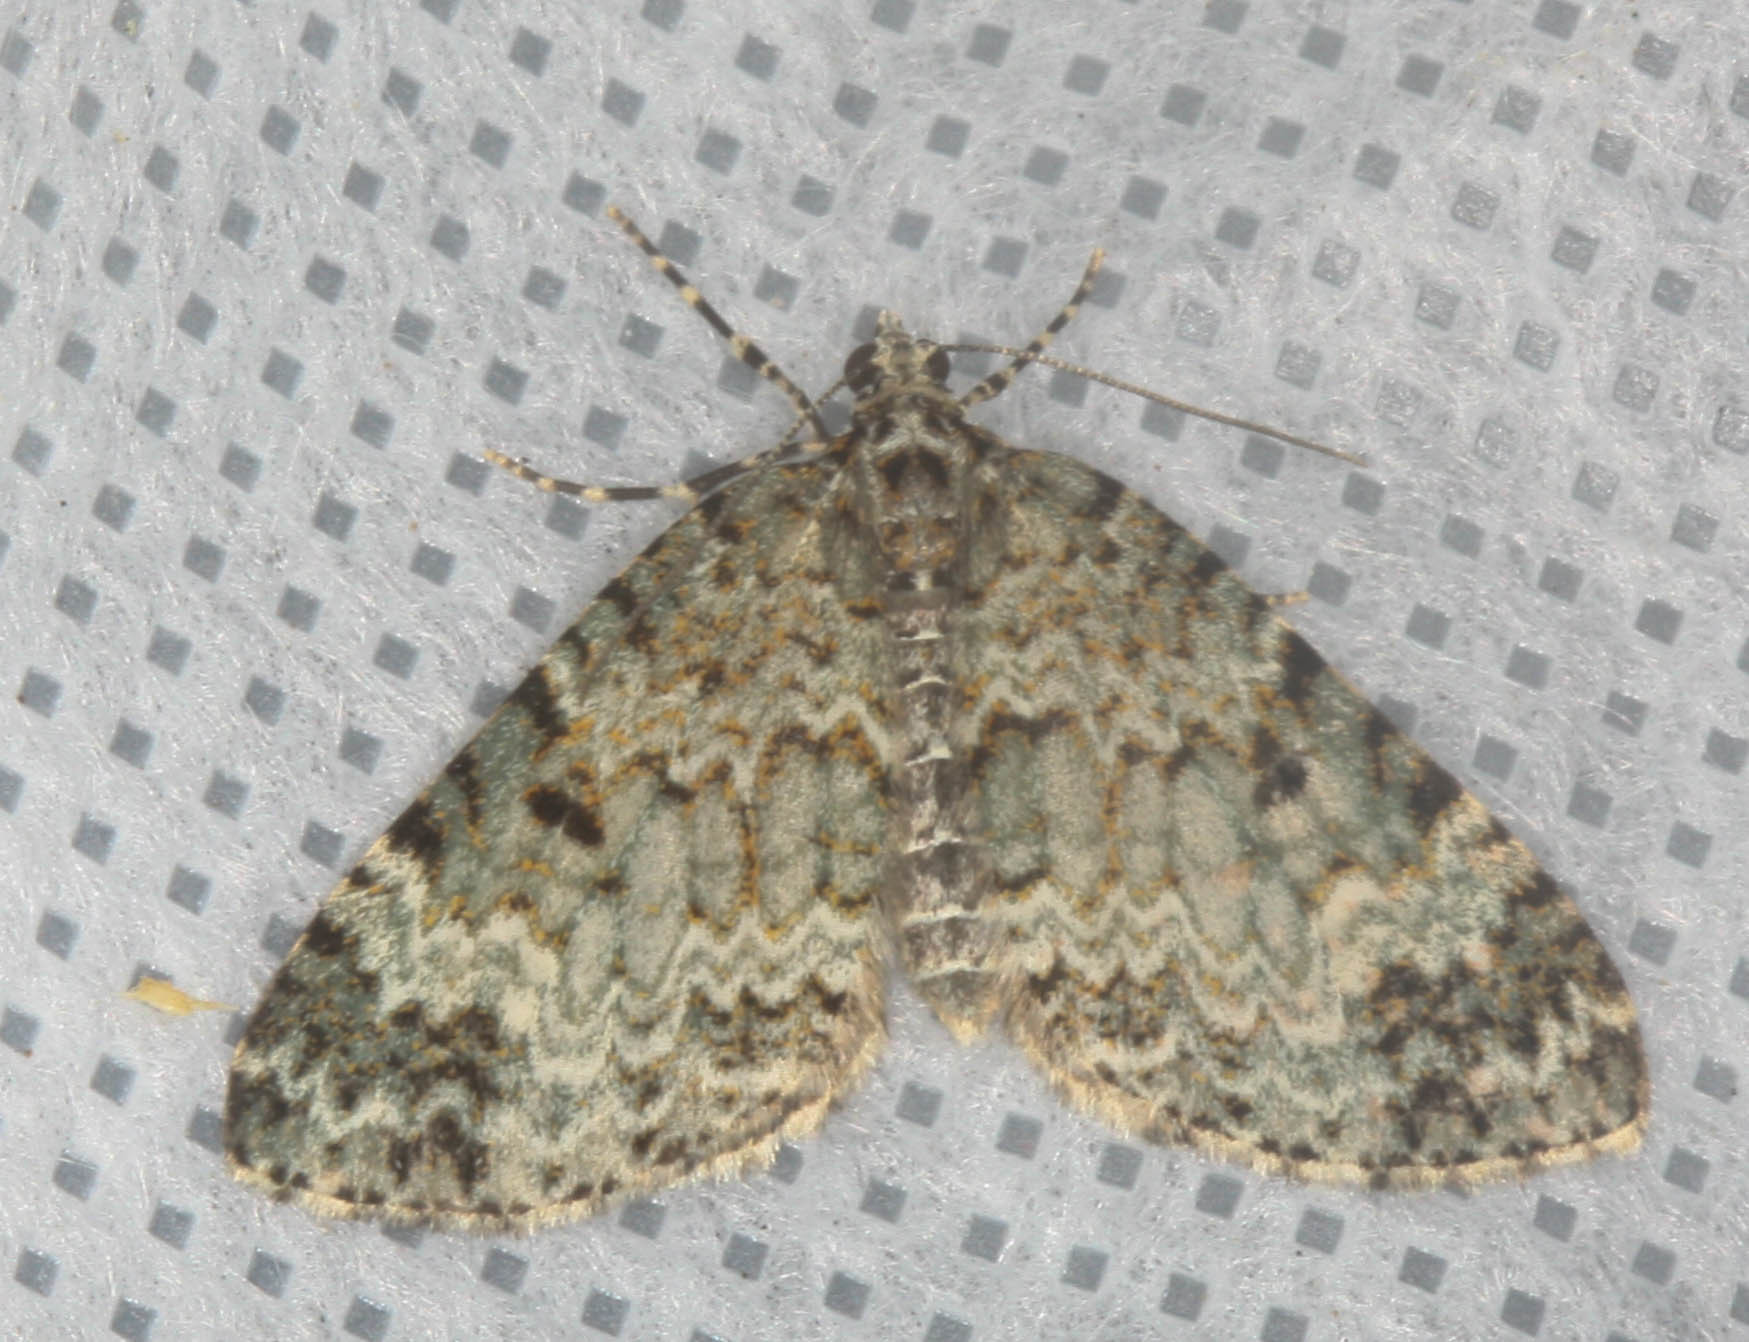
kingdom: Animalia
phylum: Arthropoda
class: Insecta
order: Lepidoptera
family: Geometridae
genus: Spargania
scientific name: Spargania magnoliata
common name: Double-banded carpet
